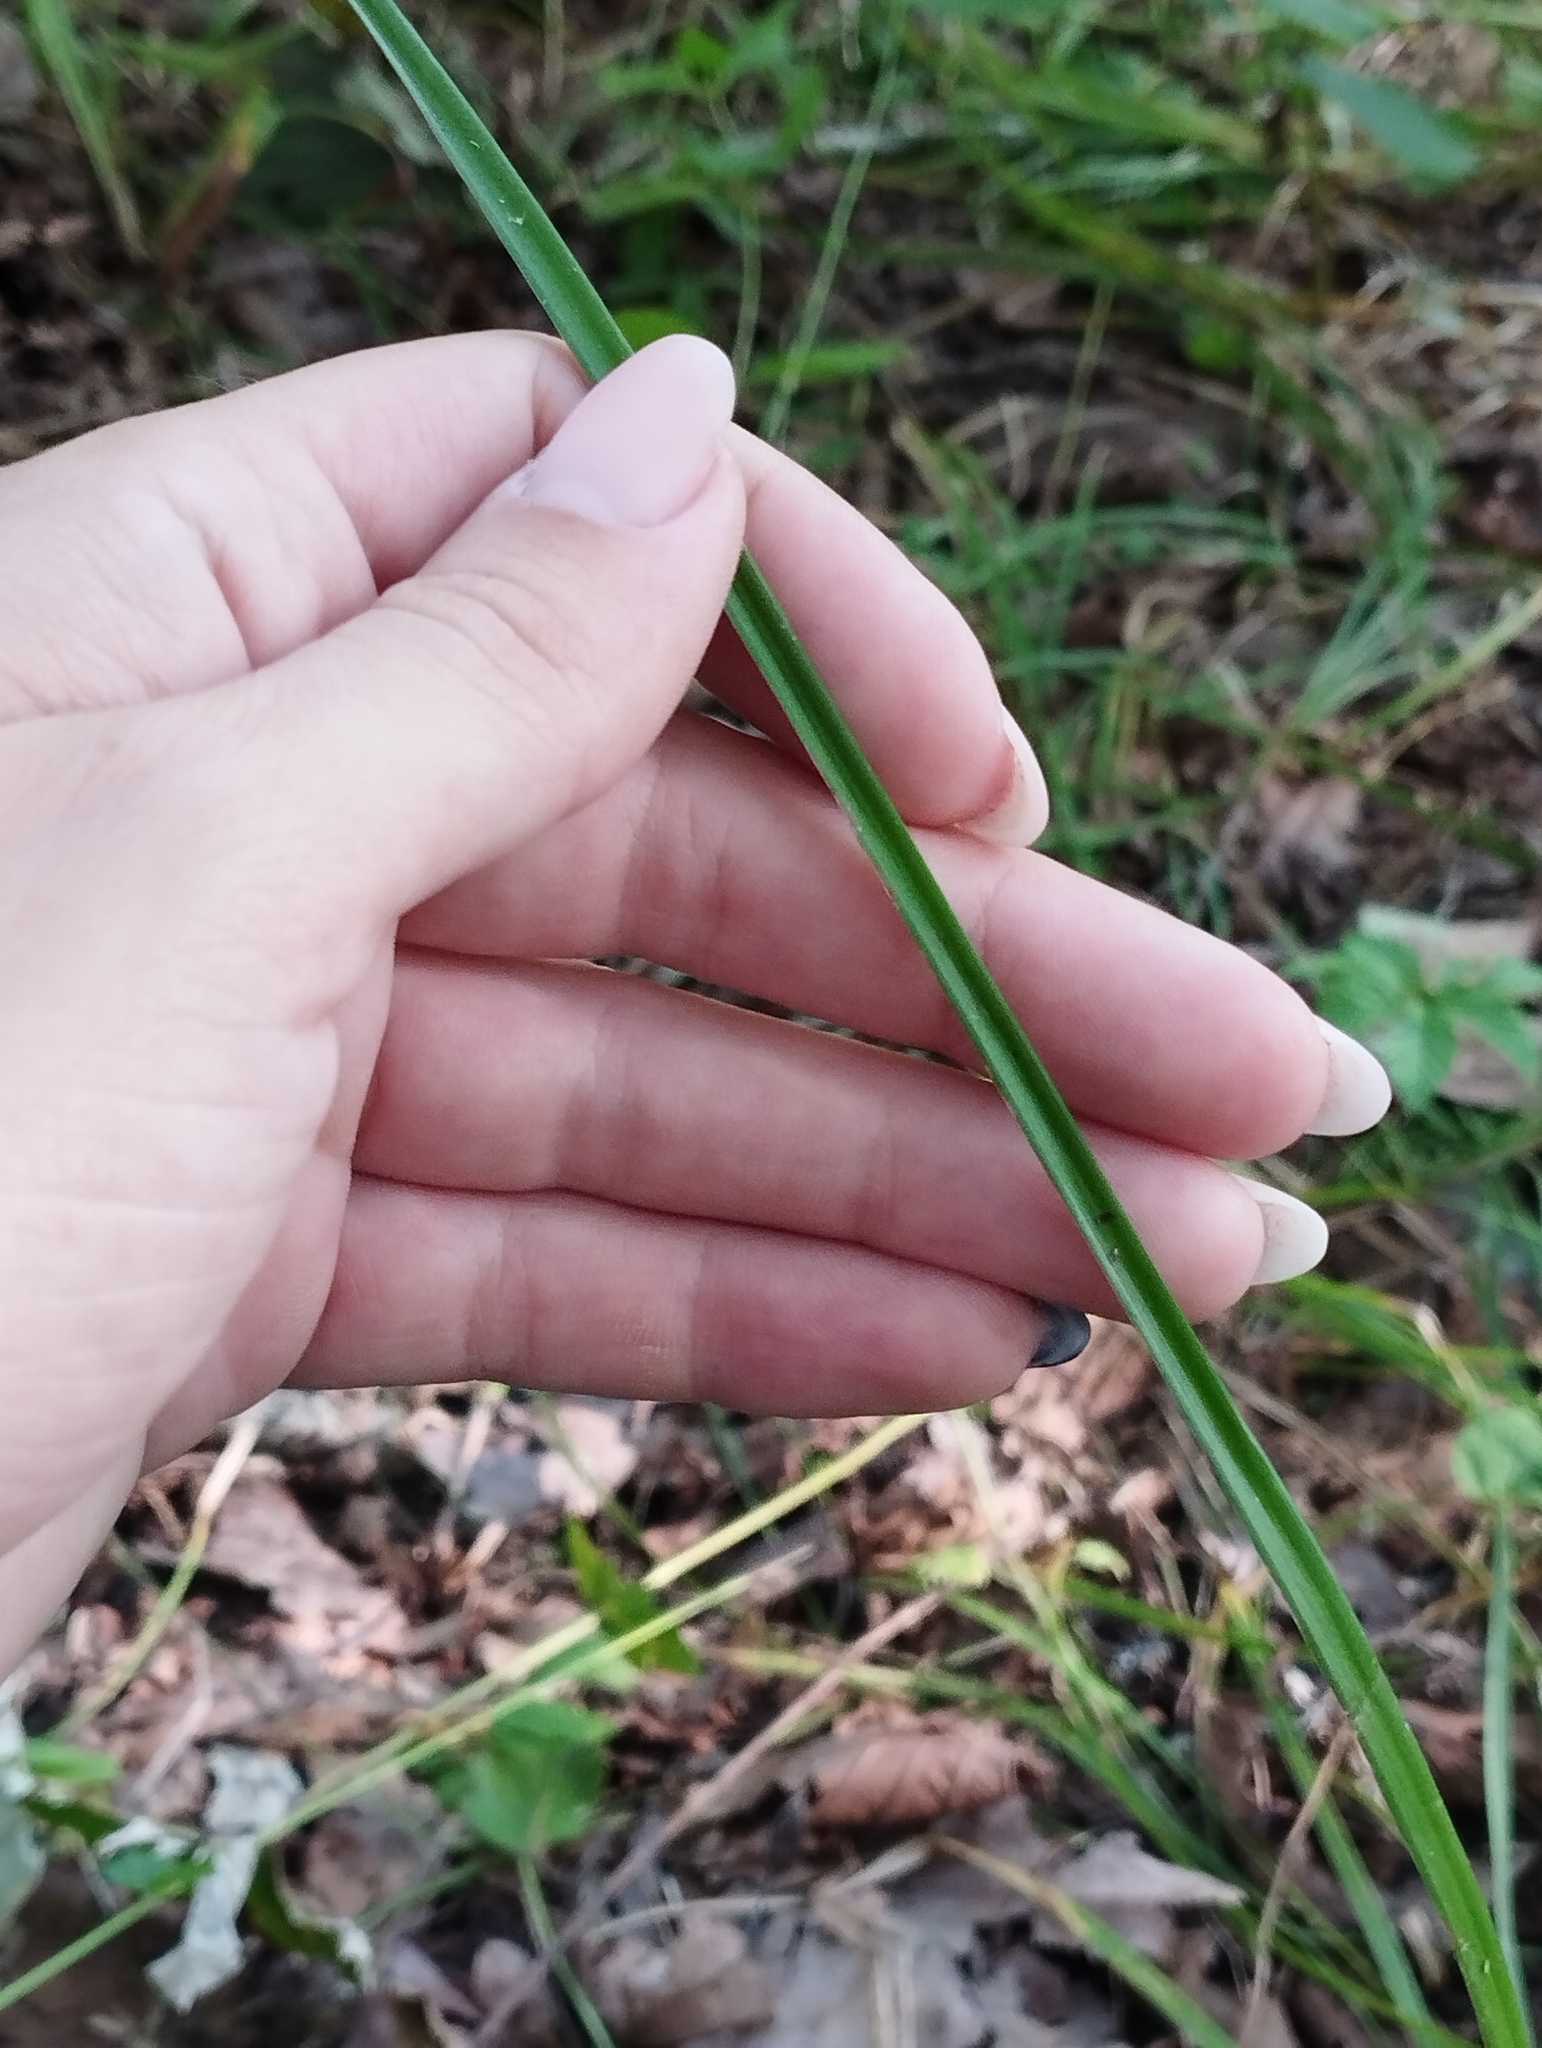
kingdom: Plantae
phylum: Tracheophyta
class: Liliopsida
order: Asparagales
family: Amaryllidaceae
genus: Allium
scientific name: Allium sacculiferum
